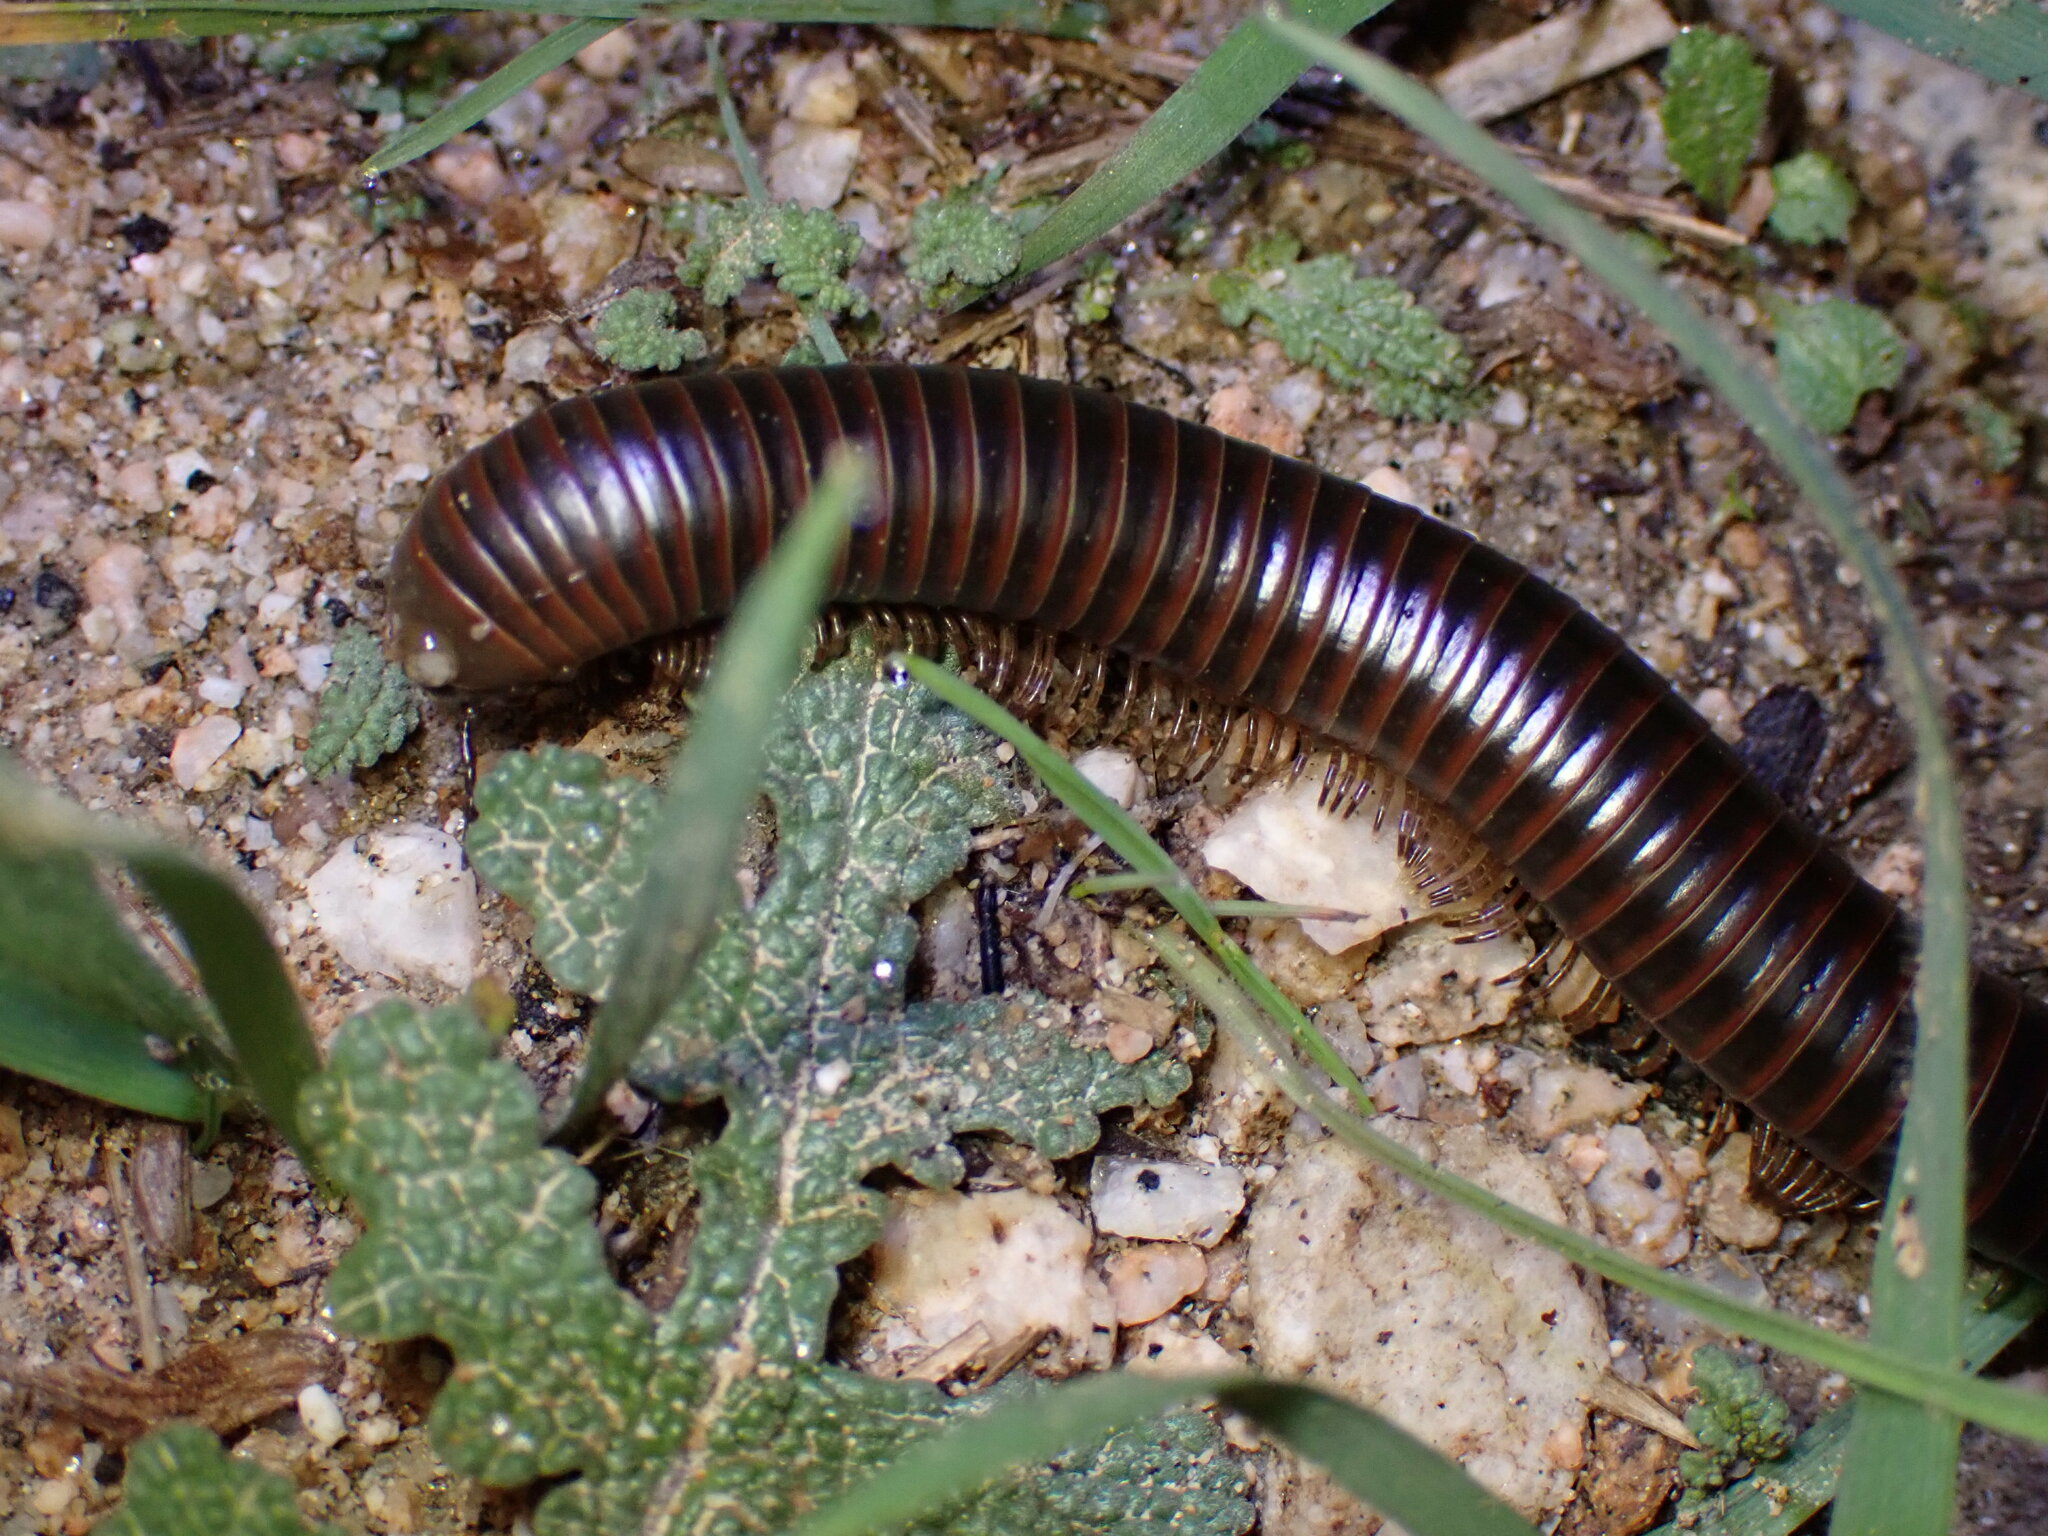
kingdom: Animalia
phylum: Arthropoda
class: Diplopoda
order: Spirobolida
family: Spirobolidae
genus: Tylobolus
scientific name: Tylobolus claremontus
